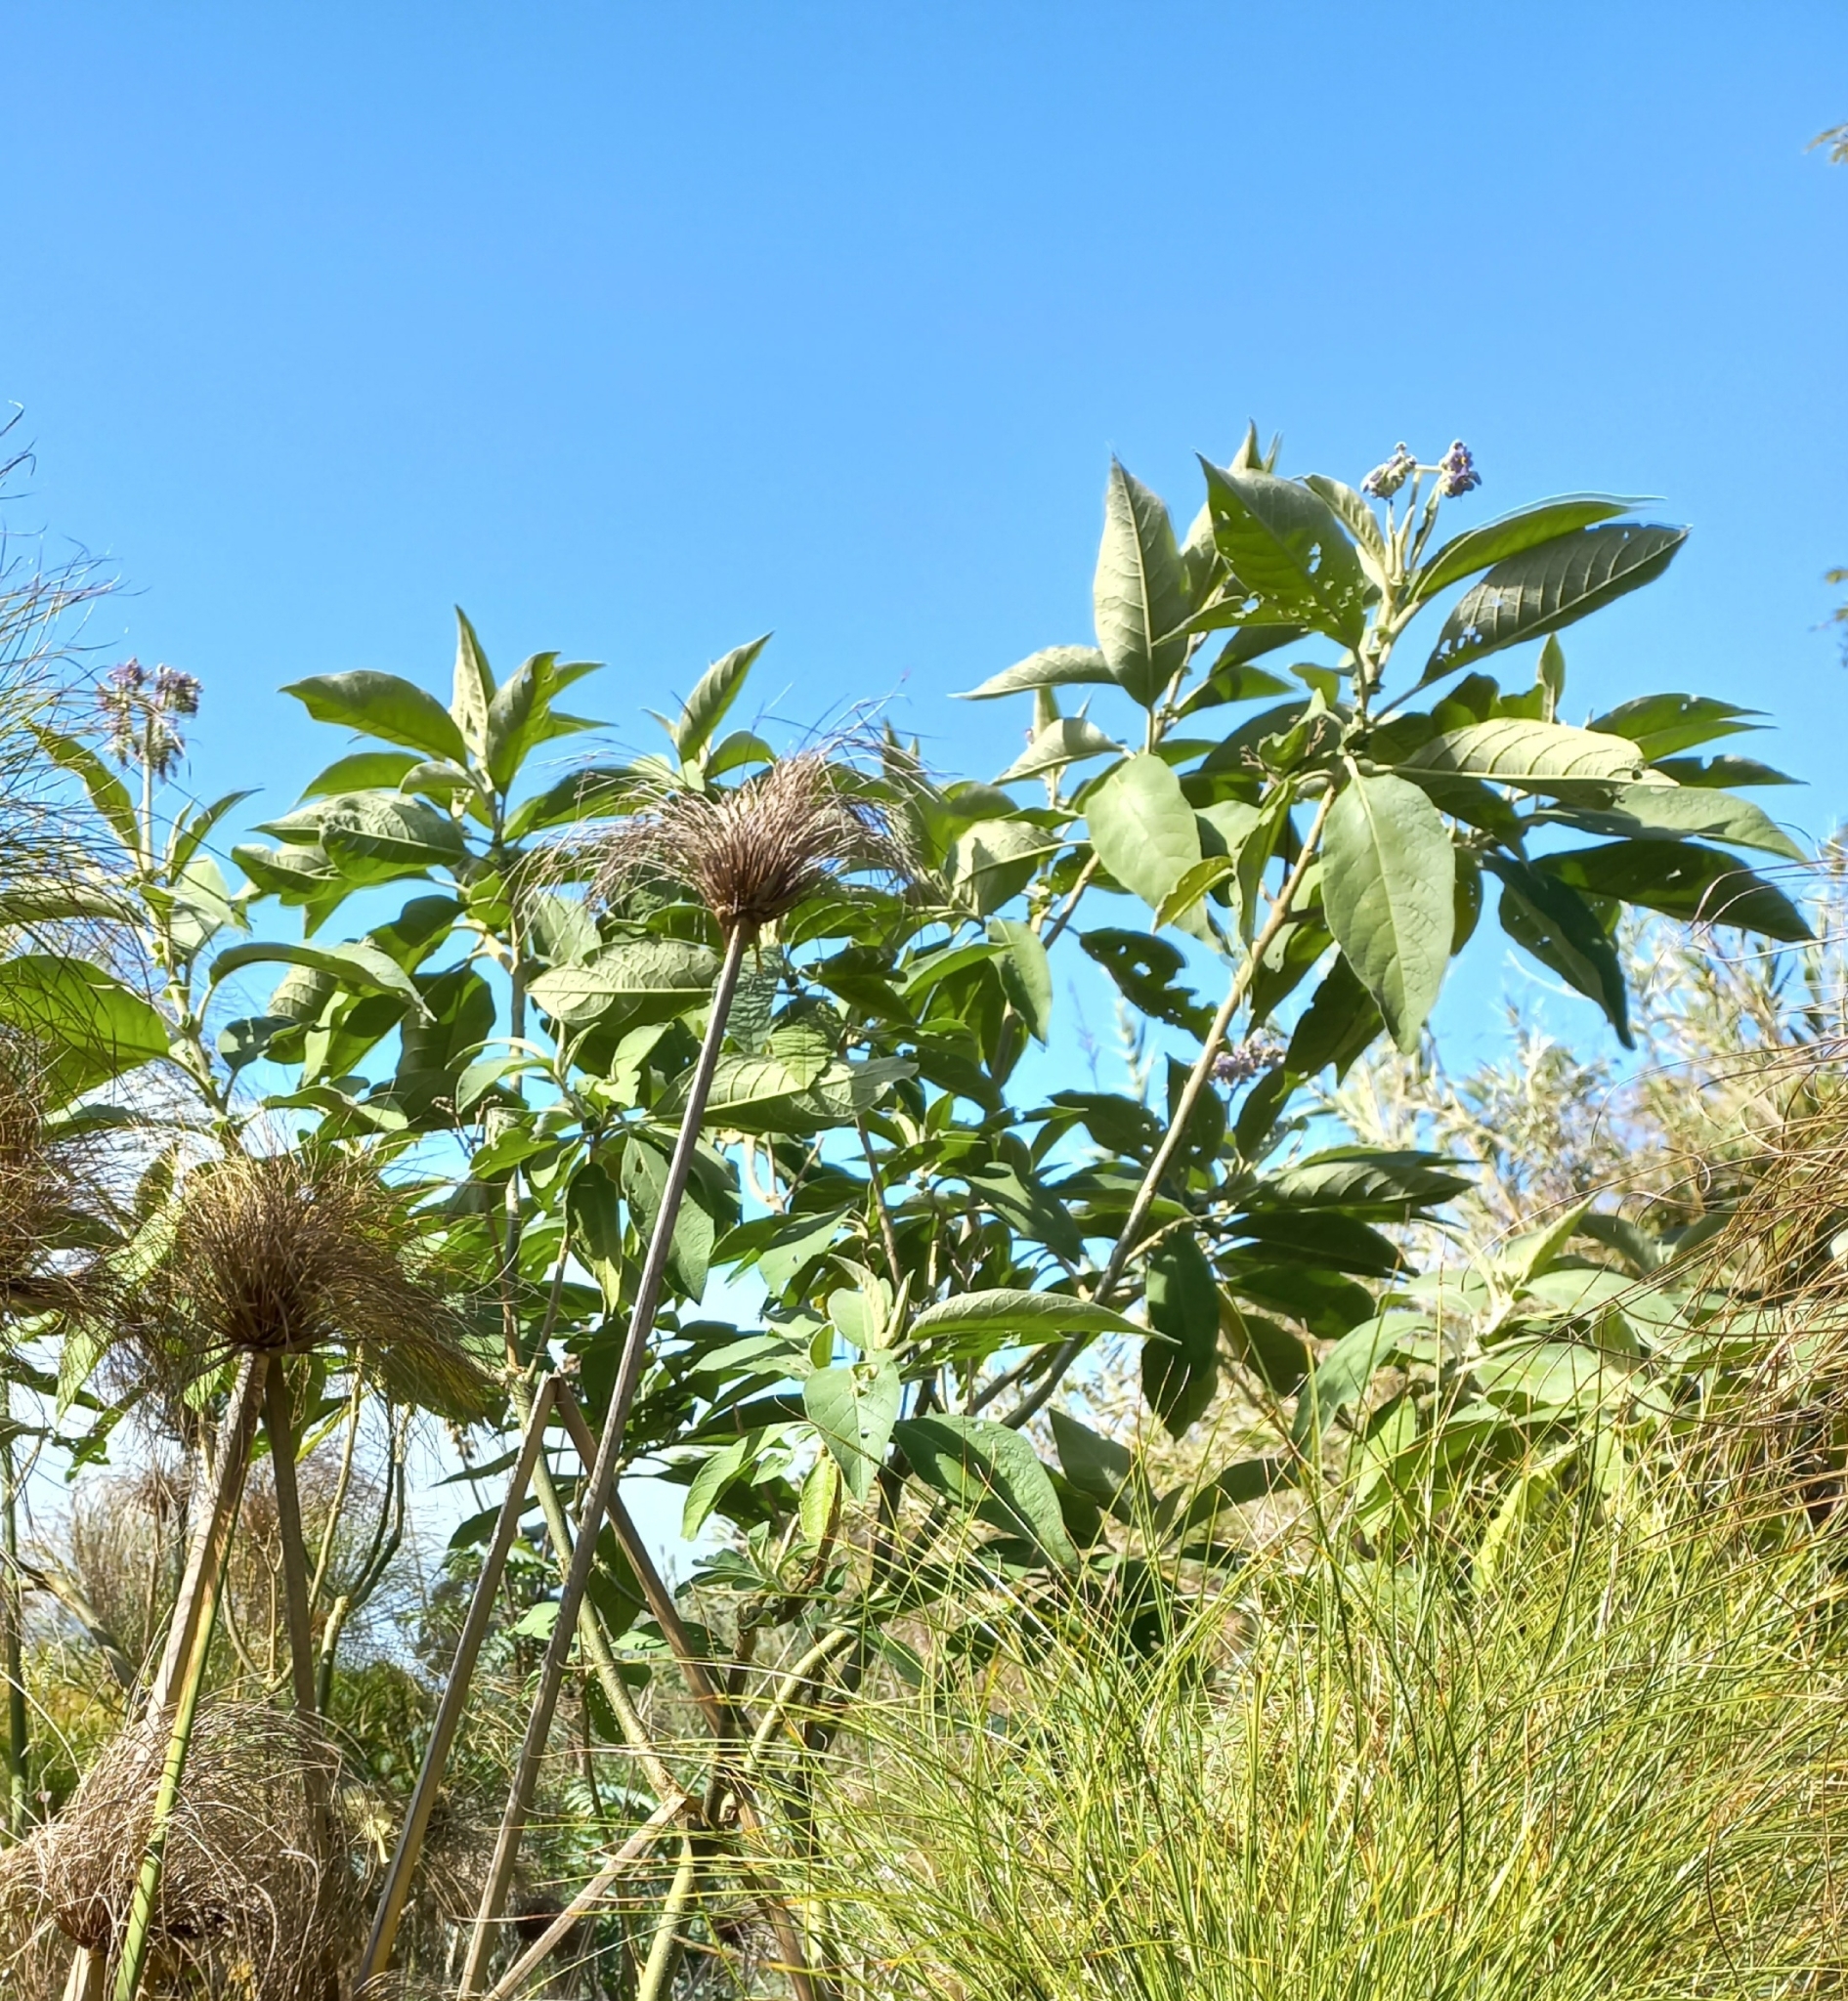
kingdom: Plantae
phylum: Tracheophyta
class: Magnoliopsida
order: Solanales
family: Solanaceae
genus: Solanum
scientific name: Solanum mauritianum
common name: Earleaf nightshade
